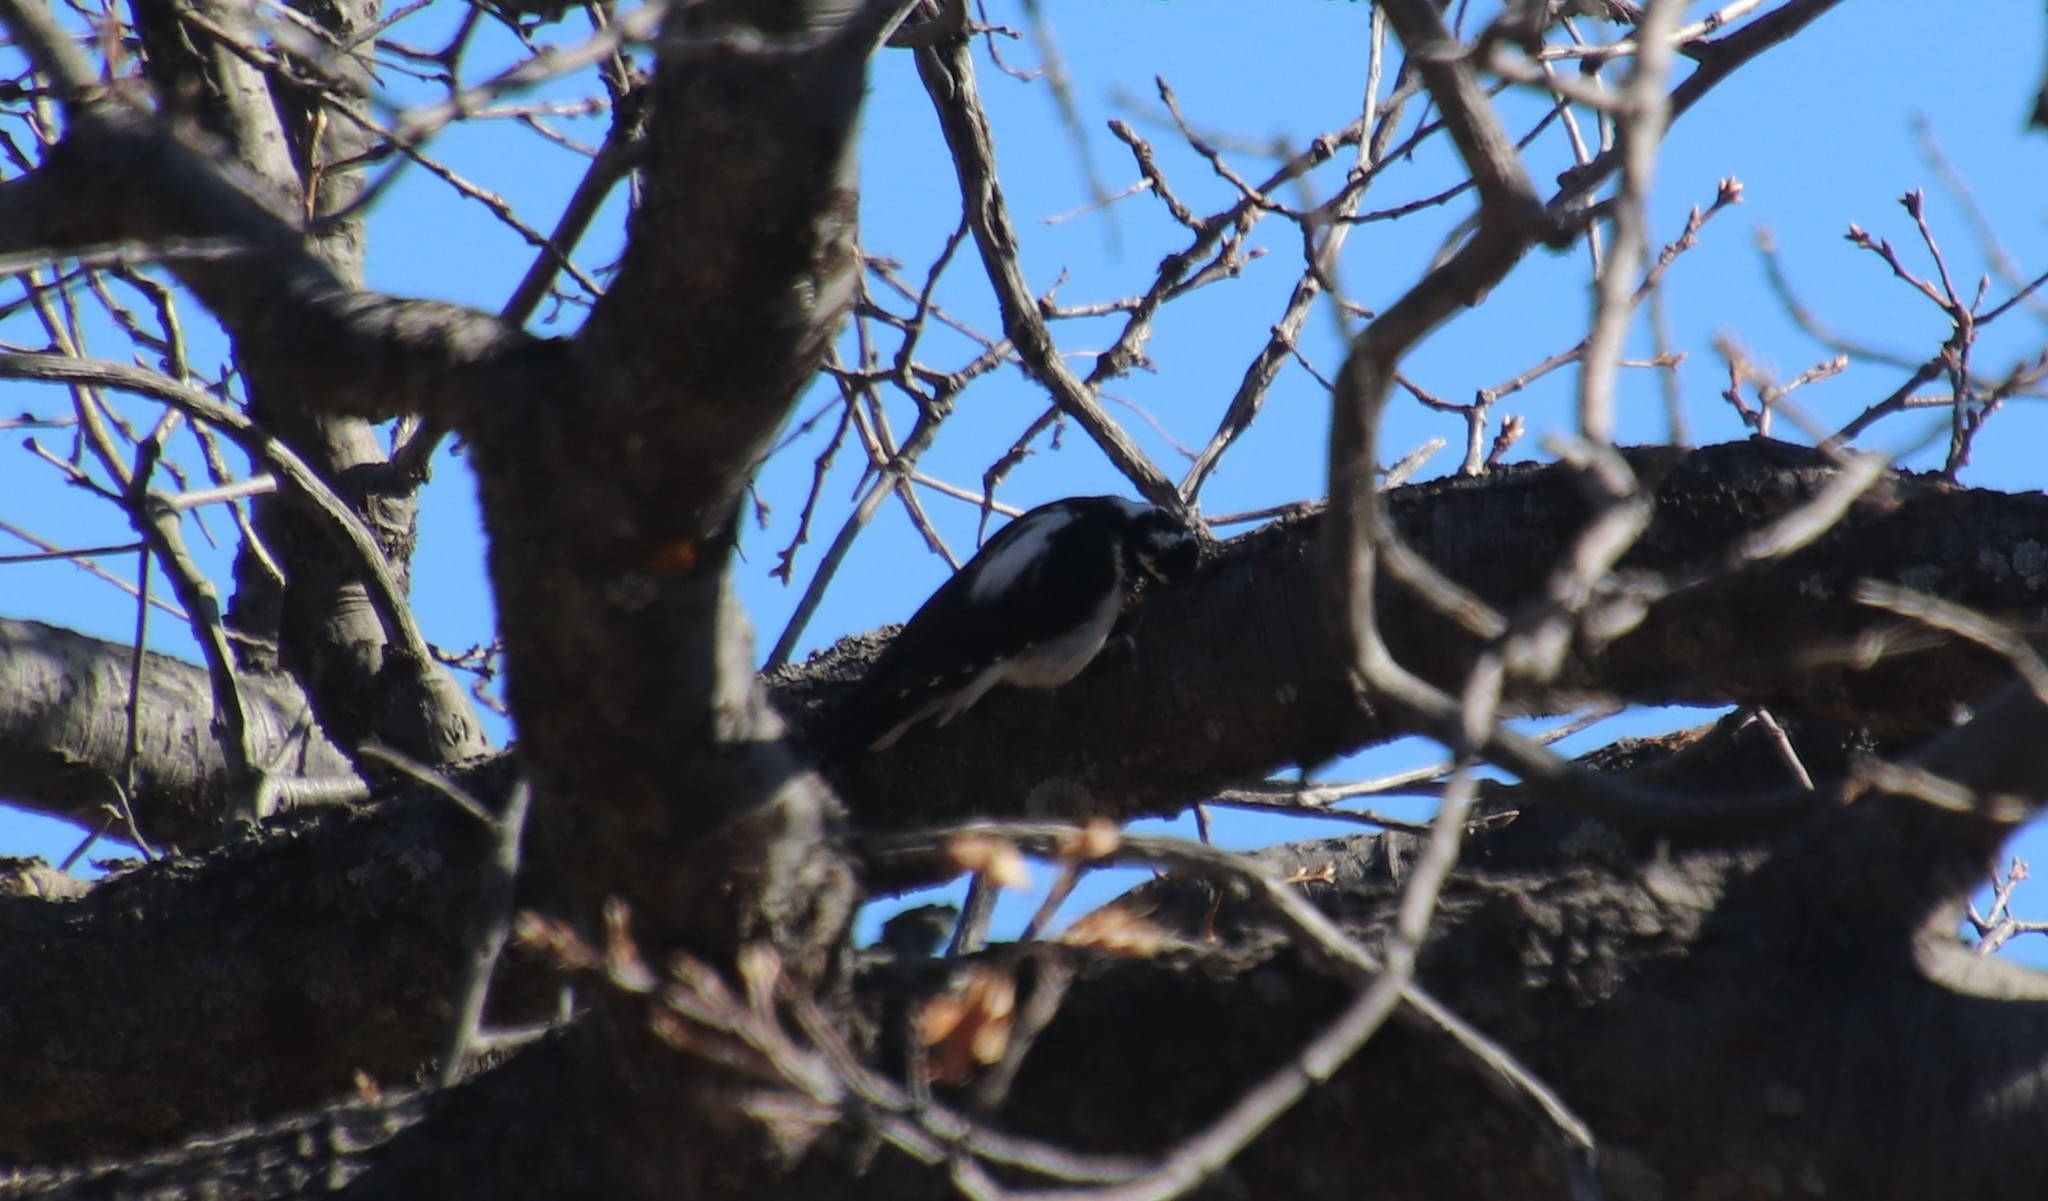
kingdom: Animalia
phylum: Chordata
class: Aves
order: Piciformes
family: Picidae
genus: Leuconotopicus
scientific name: Leuconotopicus villosus
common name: Hairy woodpecker
